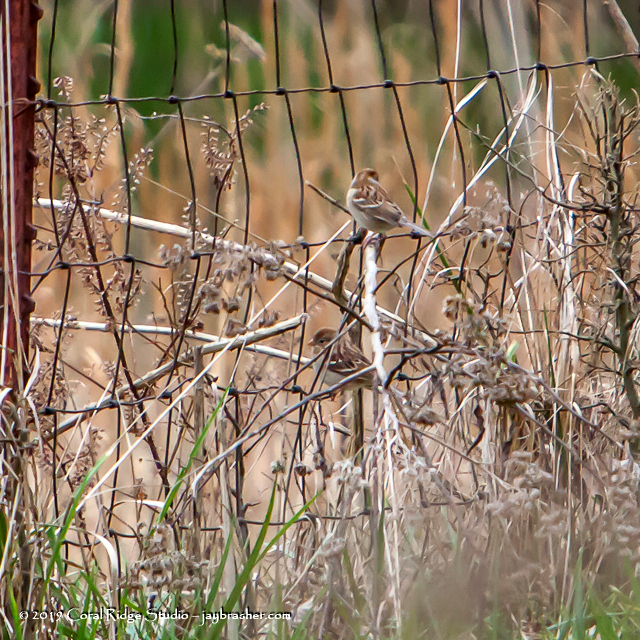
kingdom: Animalia
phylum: Chordata
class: Aves
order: Passeriformes
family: Passerellidae
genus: Spizella
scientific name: Spizella pusilla
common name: Field sparrow
